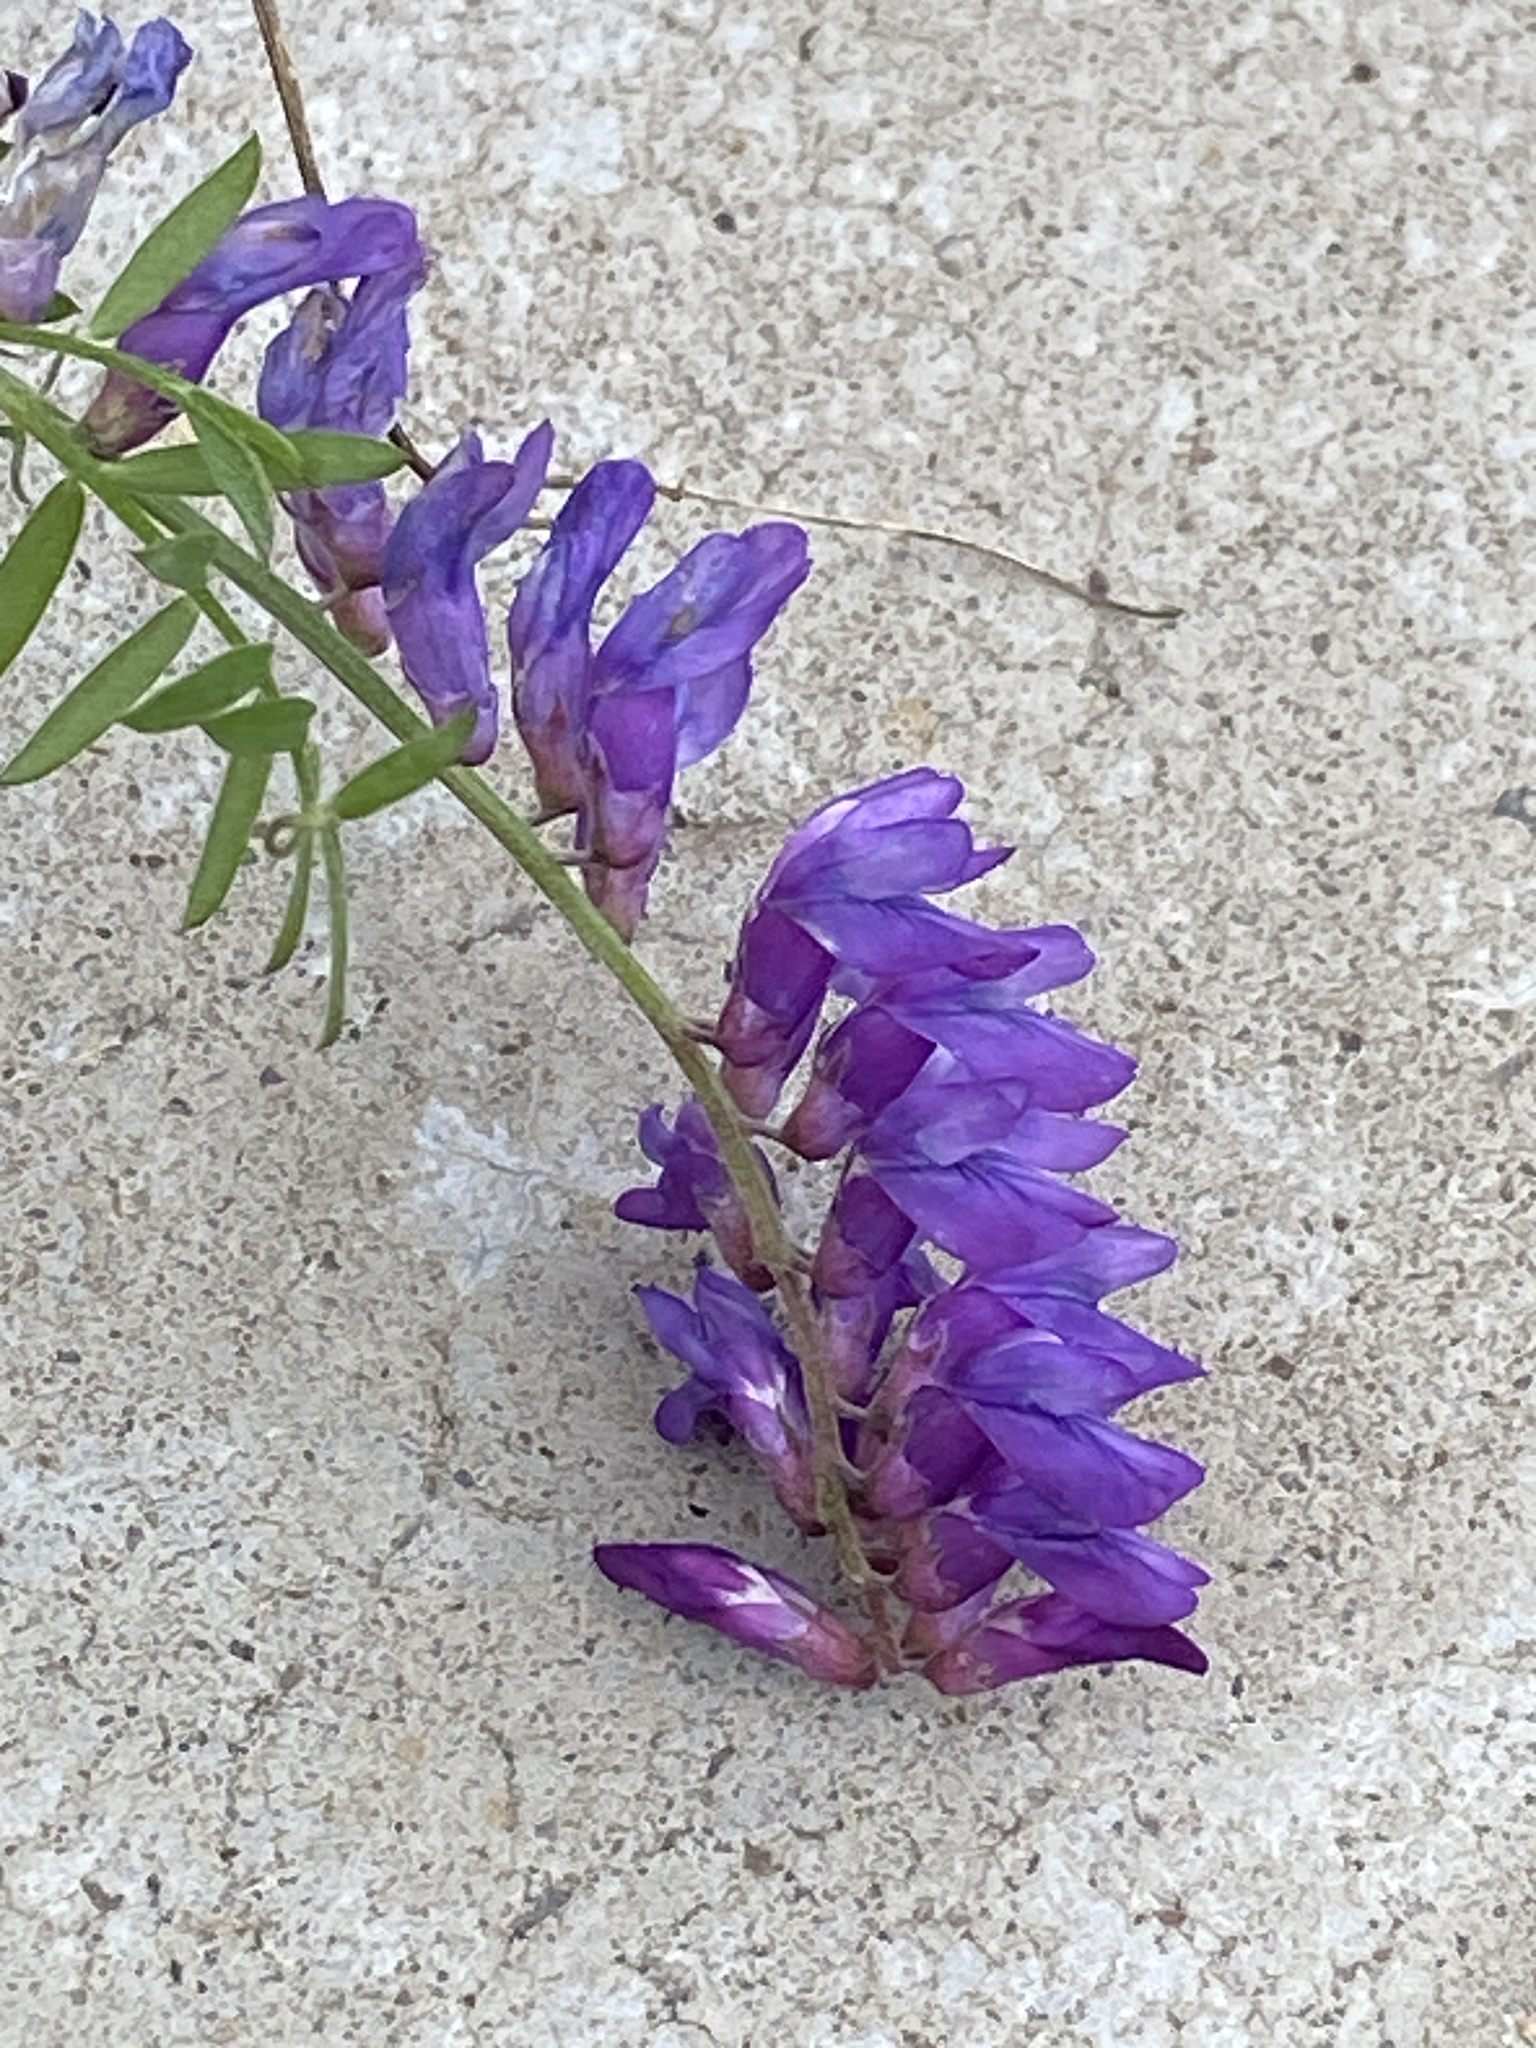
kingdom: Plantae
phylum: Tracheophyta
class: Magnoliopsida
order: Fabales
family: Fabaceae
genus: Vicia
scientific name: Vicia cracca
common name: Bird vetch
